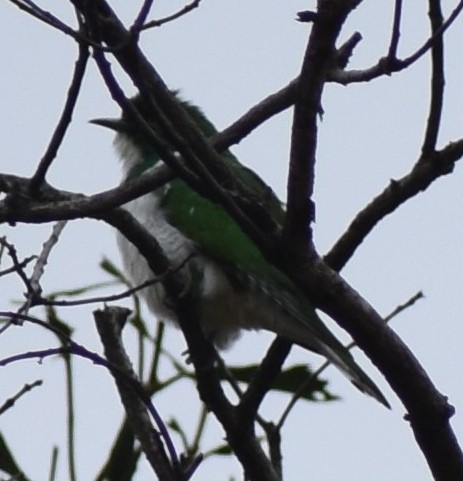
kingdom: Animalia
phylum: Chordata
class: Aves
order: Cuculiformes
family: Cuculidae
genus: Chrysococcyx
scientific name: Chrysococcyx klaas
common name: Klaas's cuckoo
